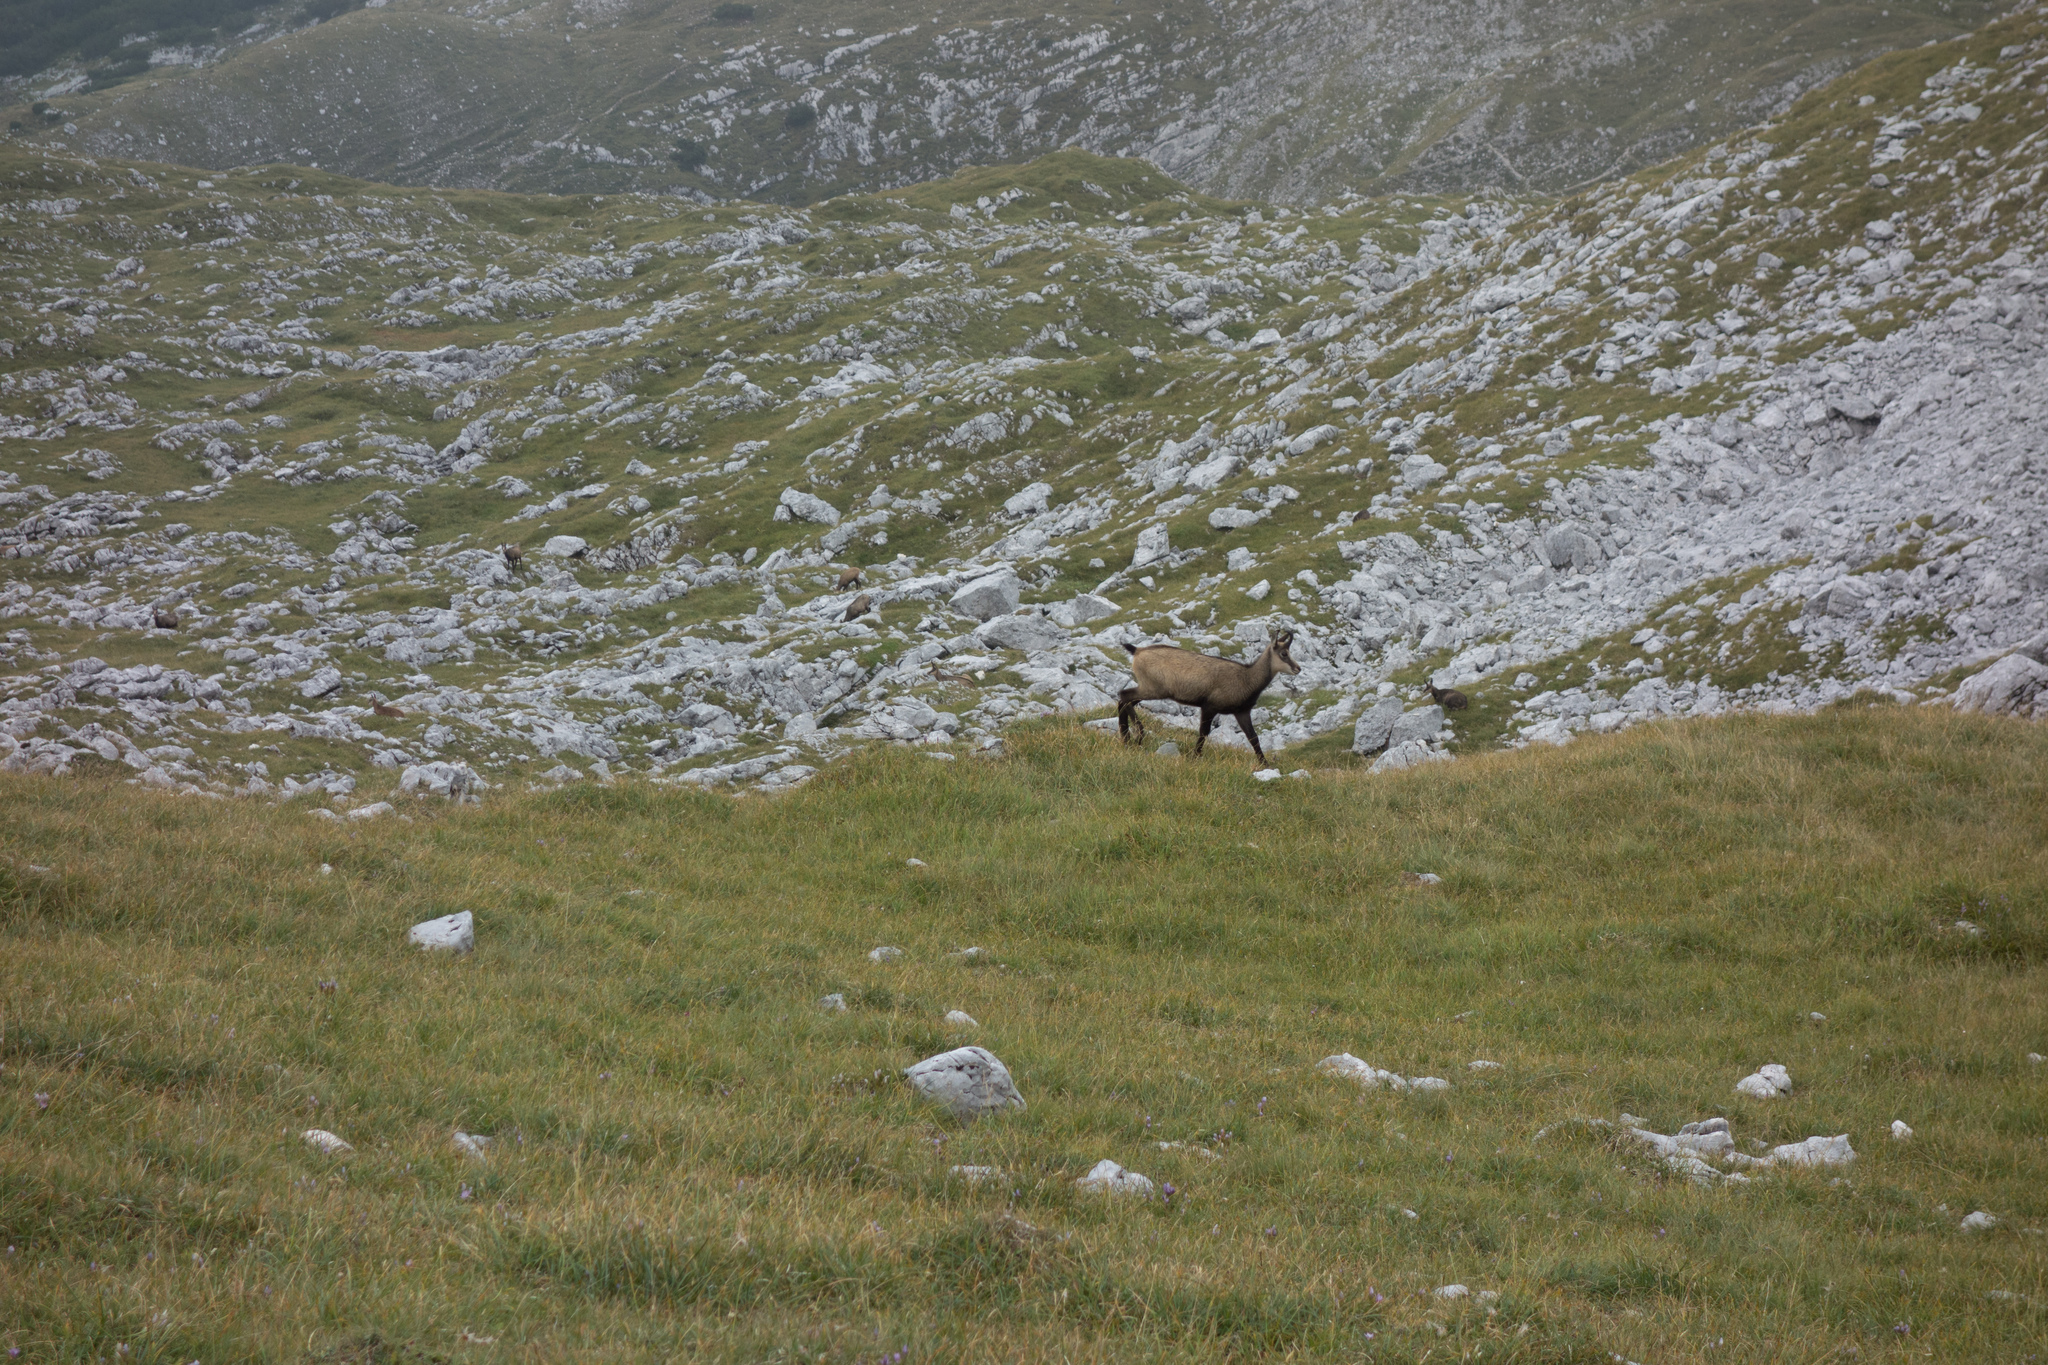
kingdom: Animalia
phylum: Chordata
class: Mammalia
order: Artiodactyla
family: Bovidae
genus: Rupicapra
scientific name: Rupicapra rupicapra
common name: Chamois
